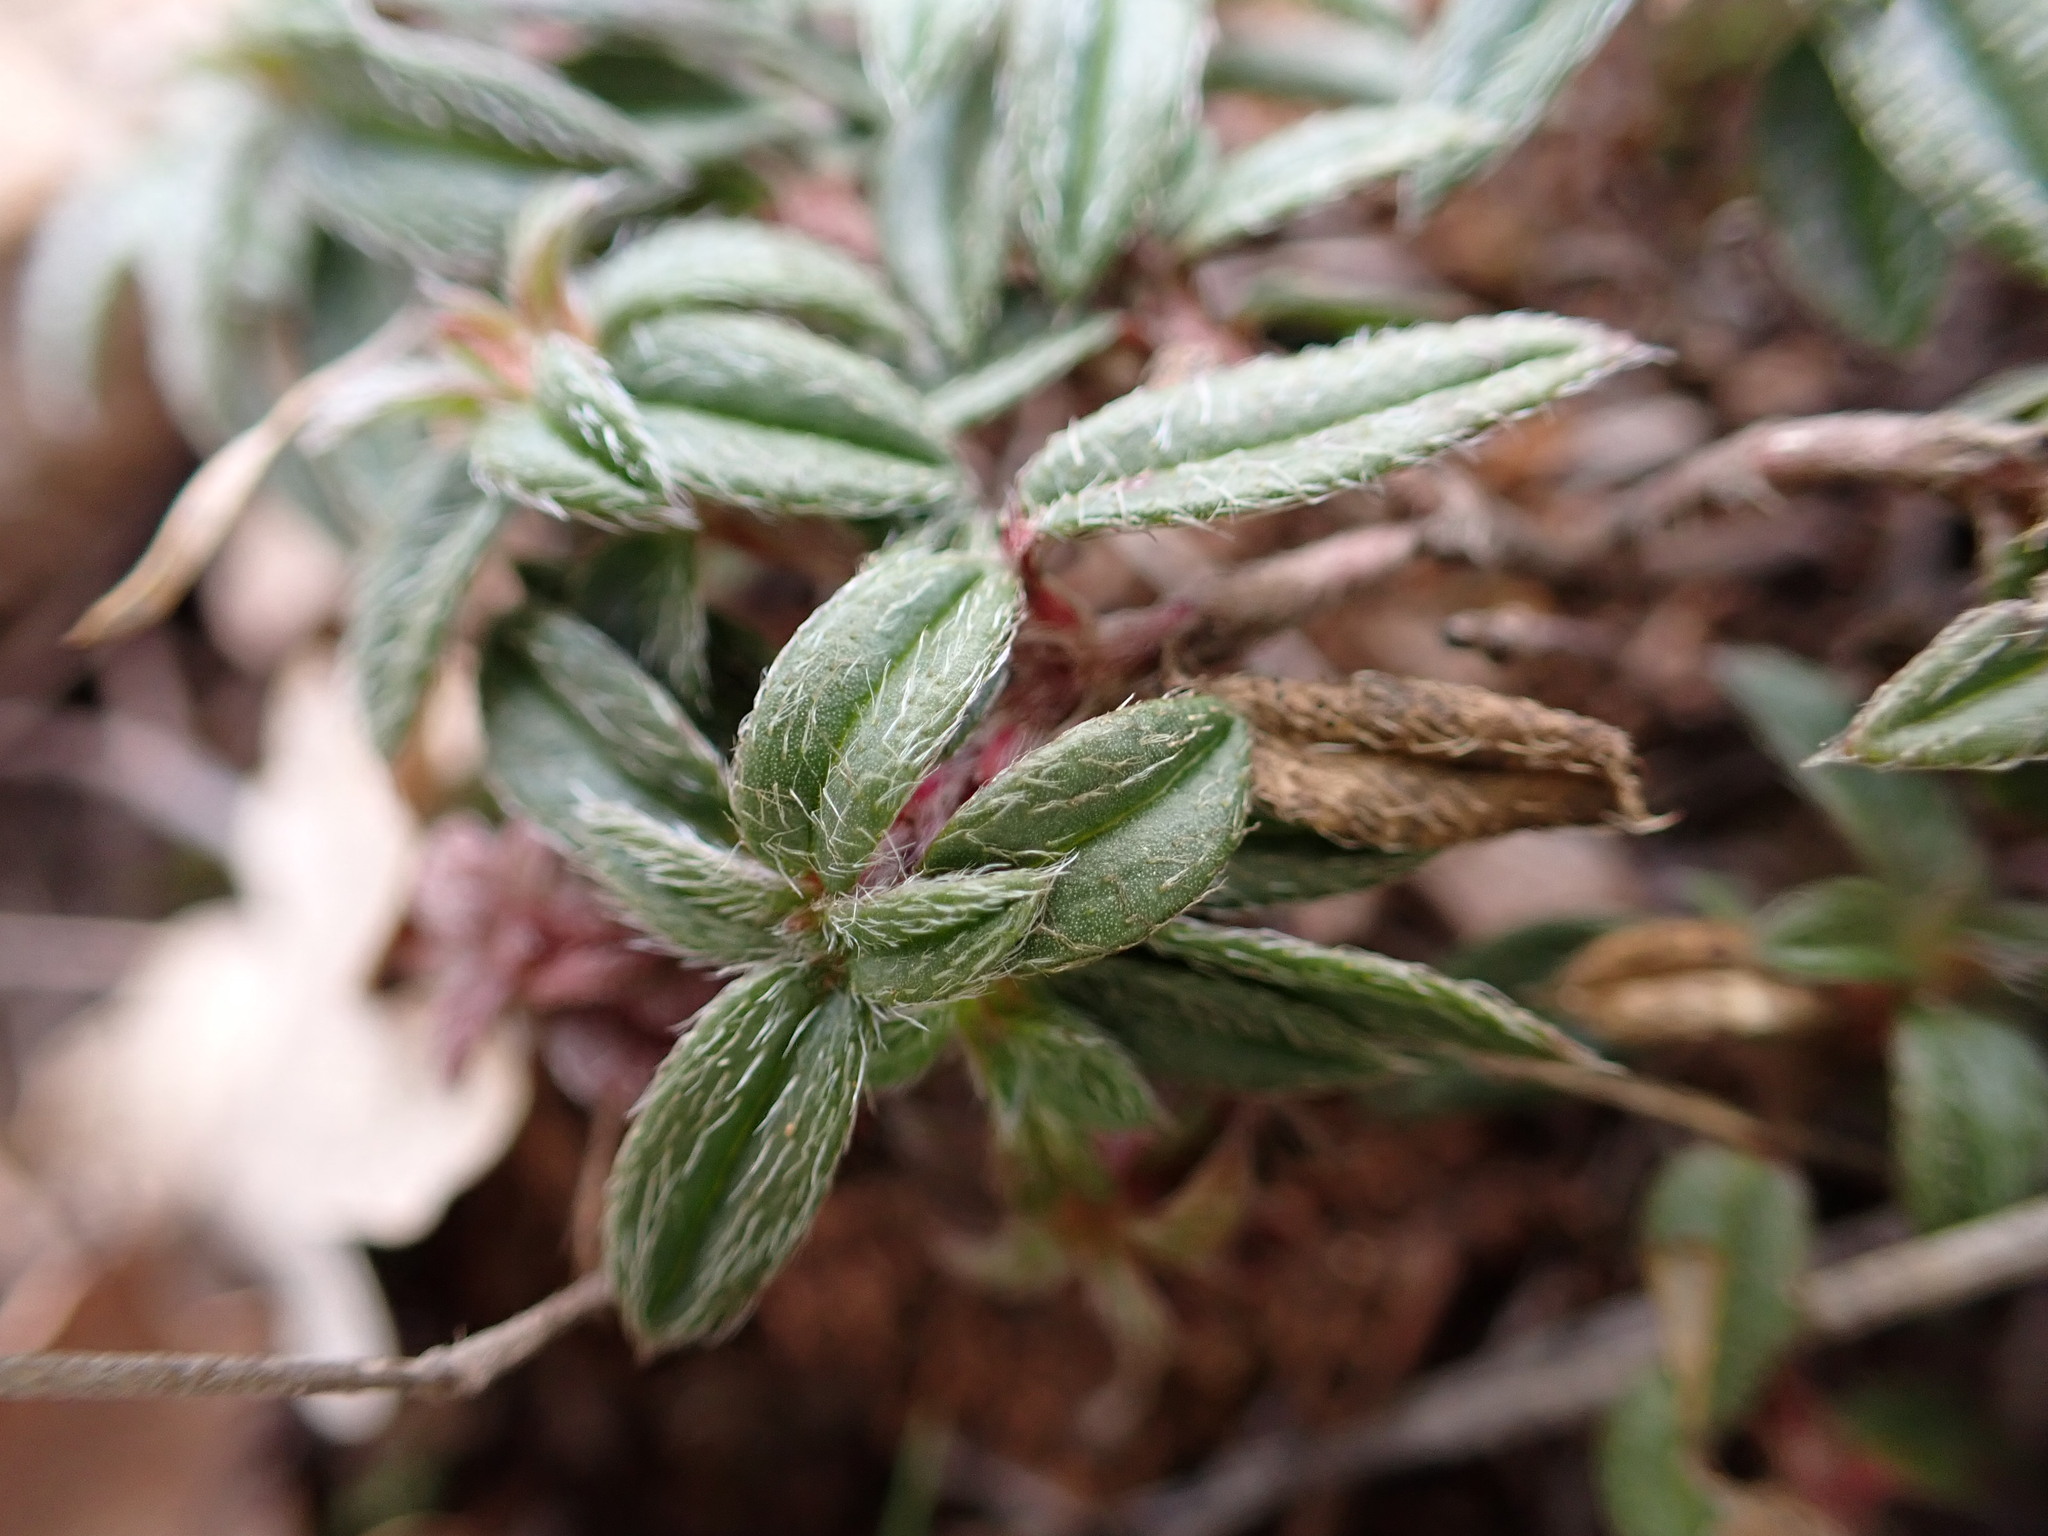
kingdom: Plantae
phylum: Tracheophyta
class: Magnoliopsida
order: Malvales
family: Cistaceae
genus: Helianthemum
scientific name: Helianthemum oelandicum
